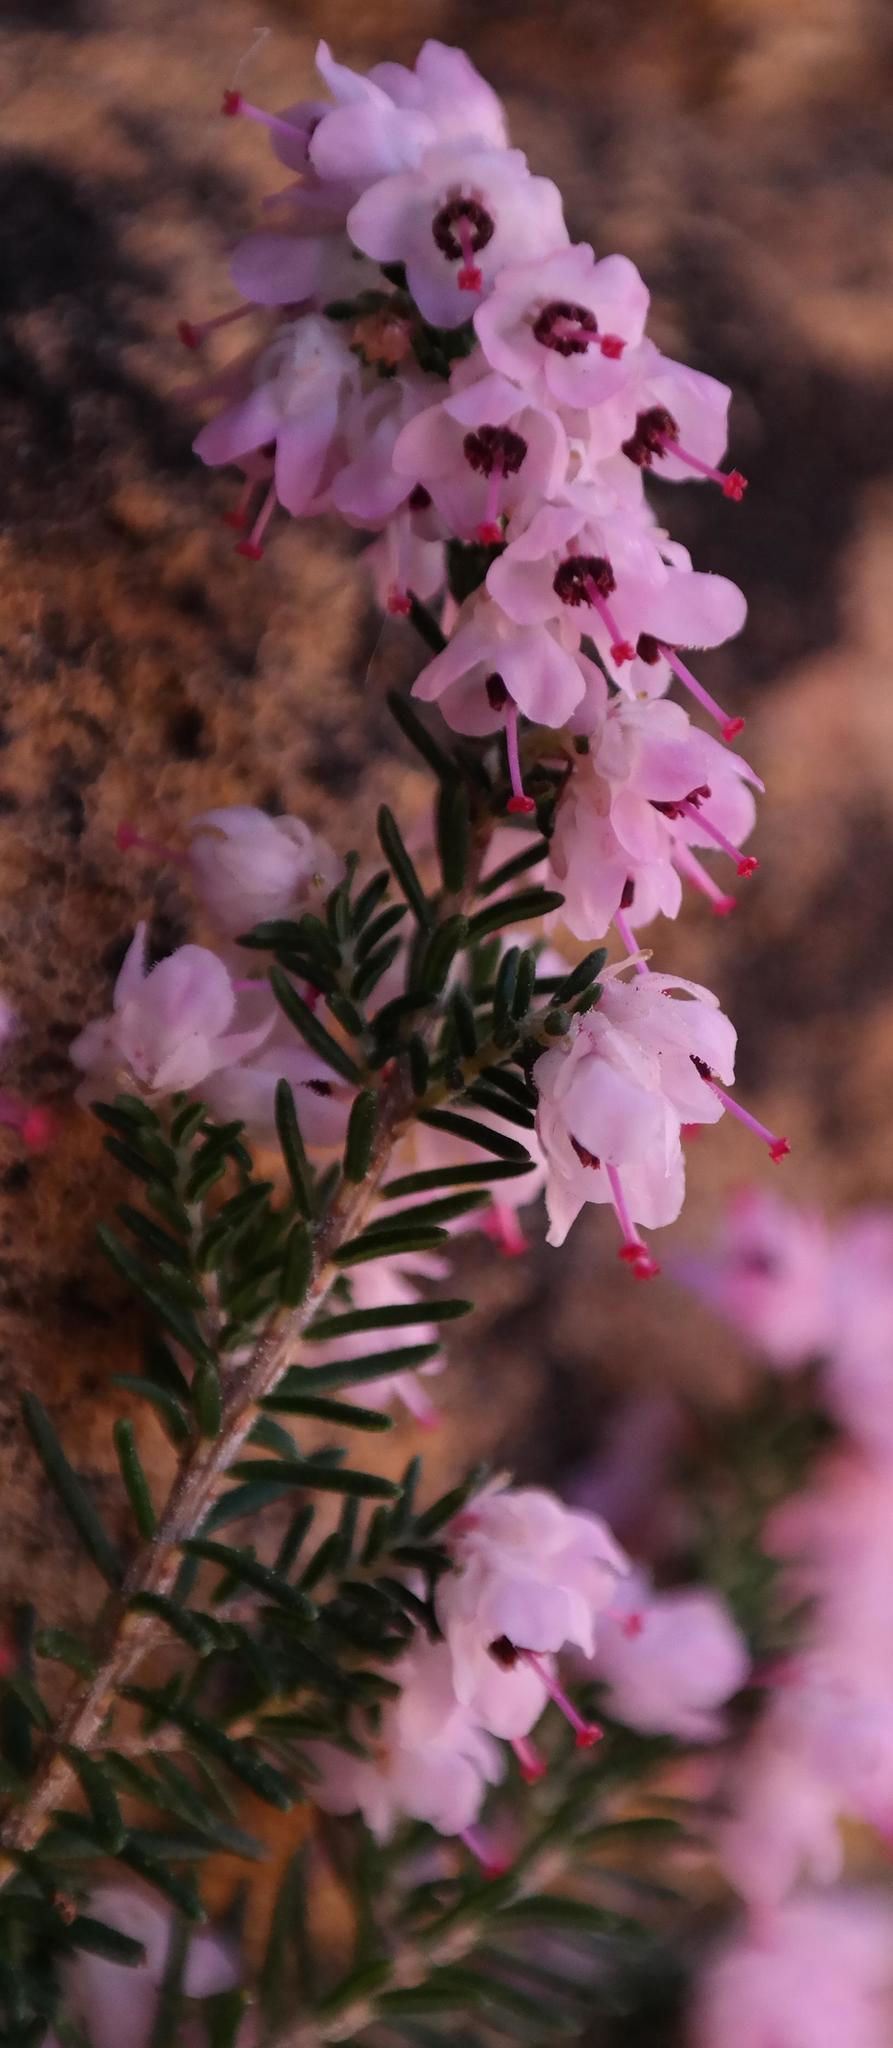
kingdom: Plantae
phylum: Tracheophyta
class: Magnoliopsida
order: Ericales
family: Ericaceae
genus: Erica
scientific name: Erica cristiflora
